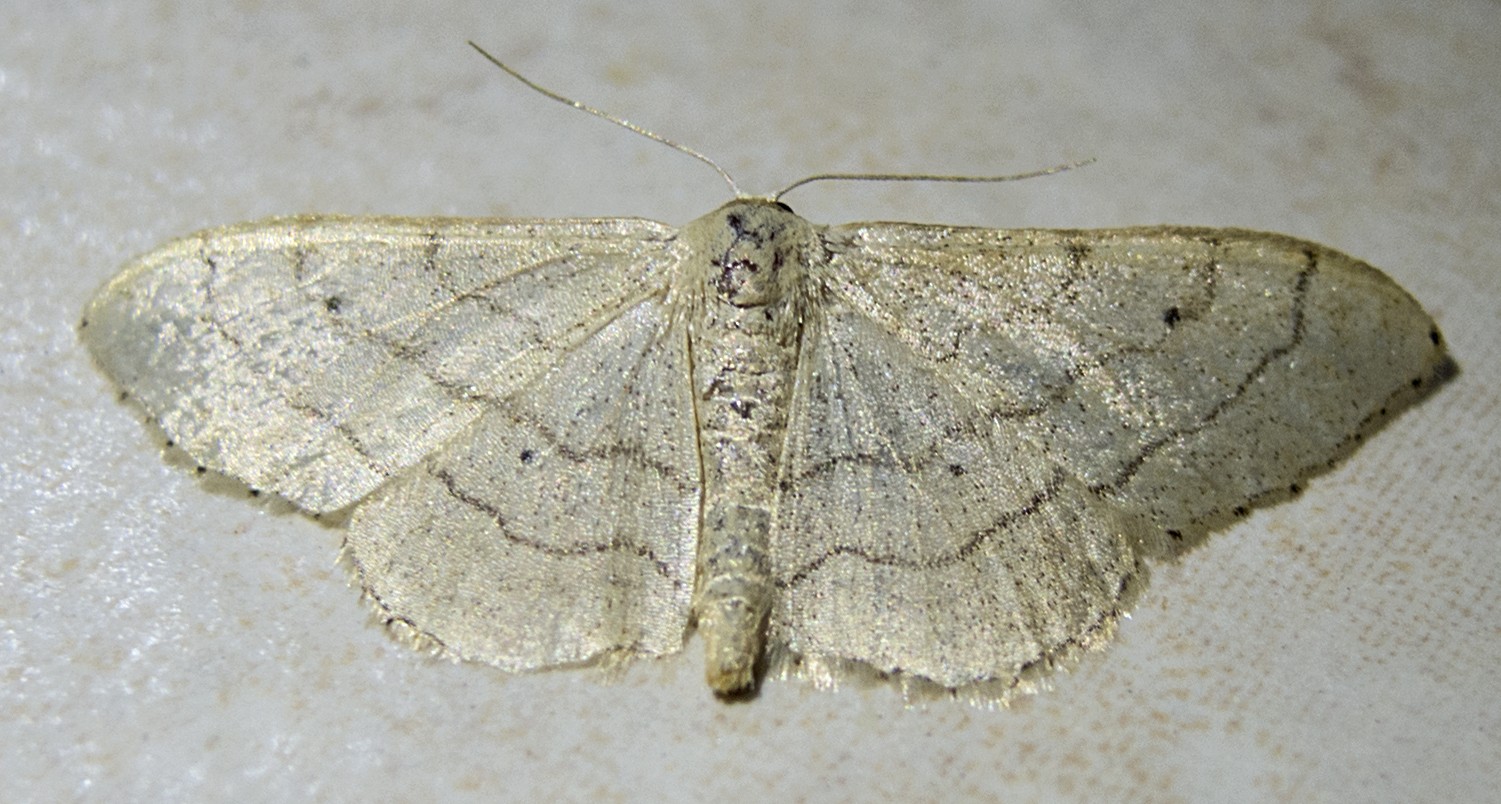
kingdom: Animalia
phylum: Arthropoda
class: Insecta
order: Lepidoptera
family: Geometridae
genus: Idaea
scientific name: Idaea aversata
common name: Riband wave
